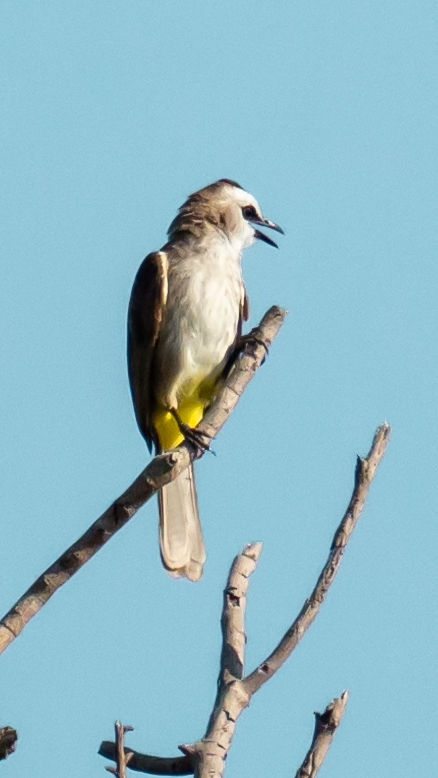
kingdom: Animalia
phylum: Chordata
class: Aves
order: Passeriformes
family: Pycnonotidae
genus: Pycnonotus
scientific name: Pycnonotus goiavier
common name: Yellow-vented bulbul
